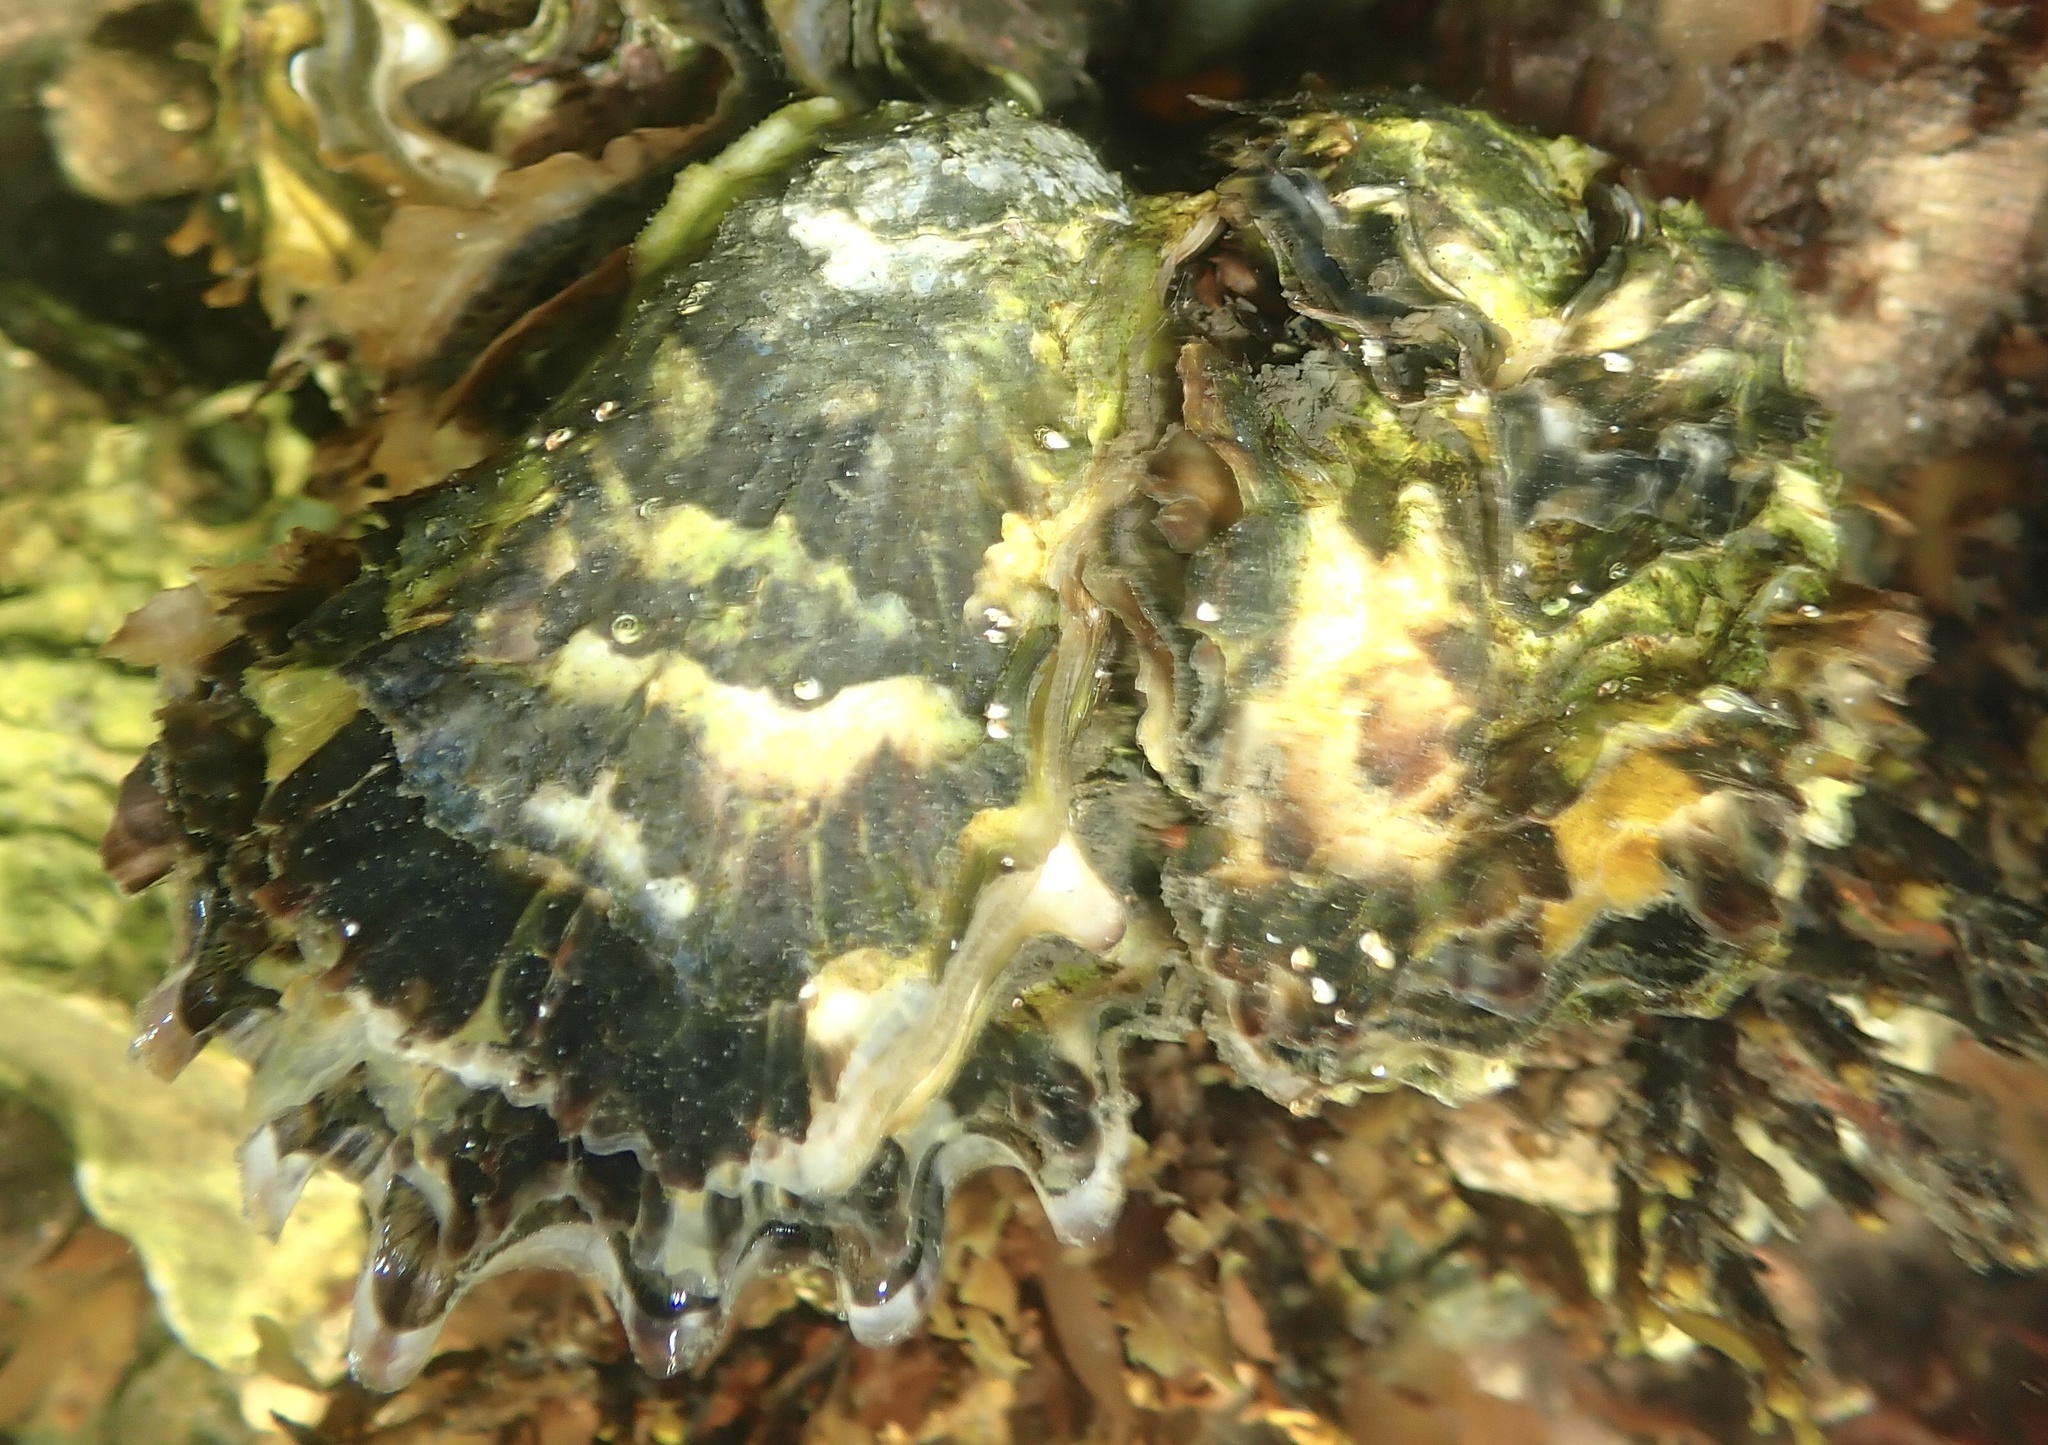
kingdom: Animalia
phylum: Mollusca
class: Bivalvia
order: Ostreida
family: Ostreidae
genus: Magallana
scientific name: Magallana gigas
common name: Pacific oyster
